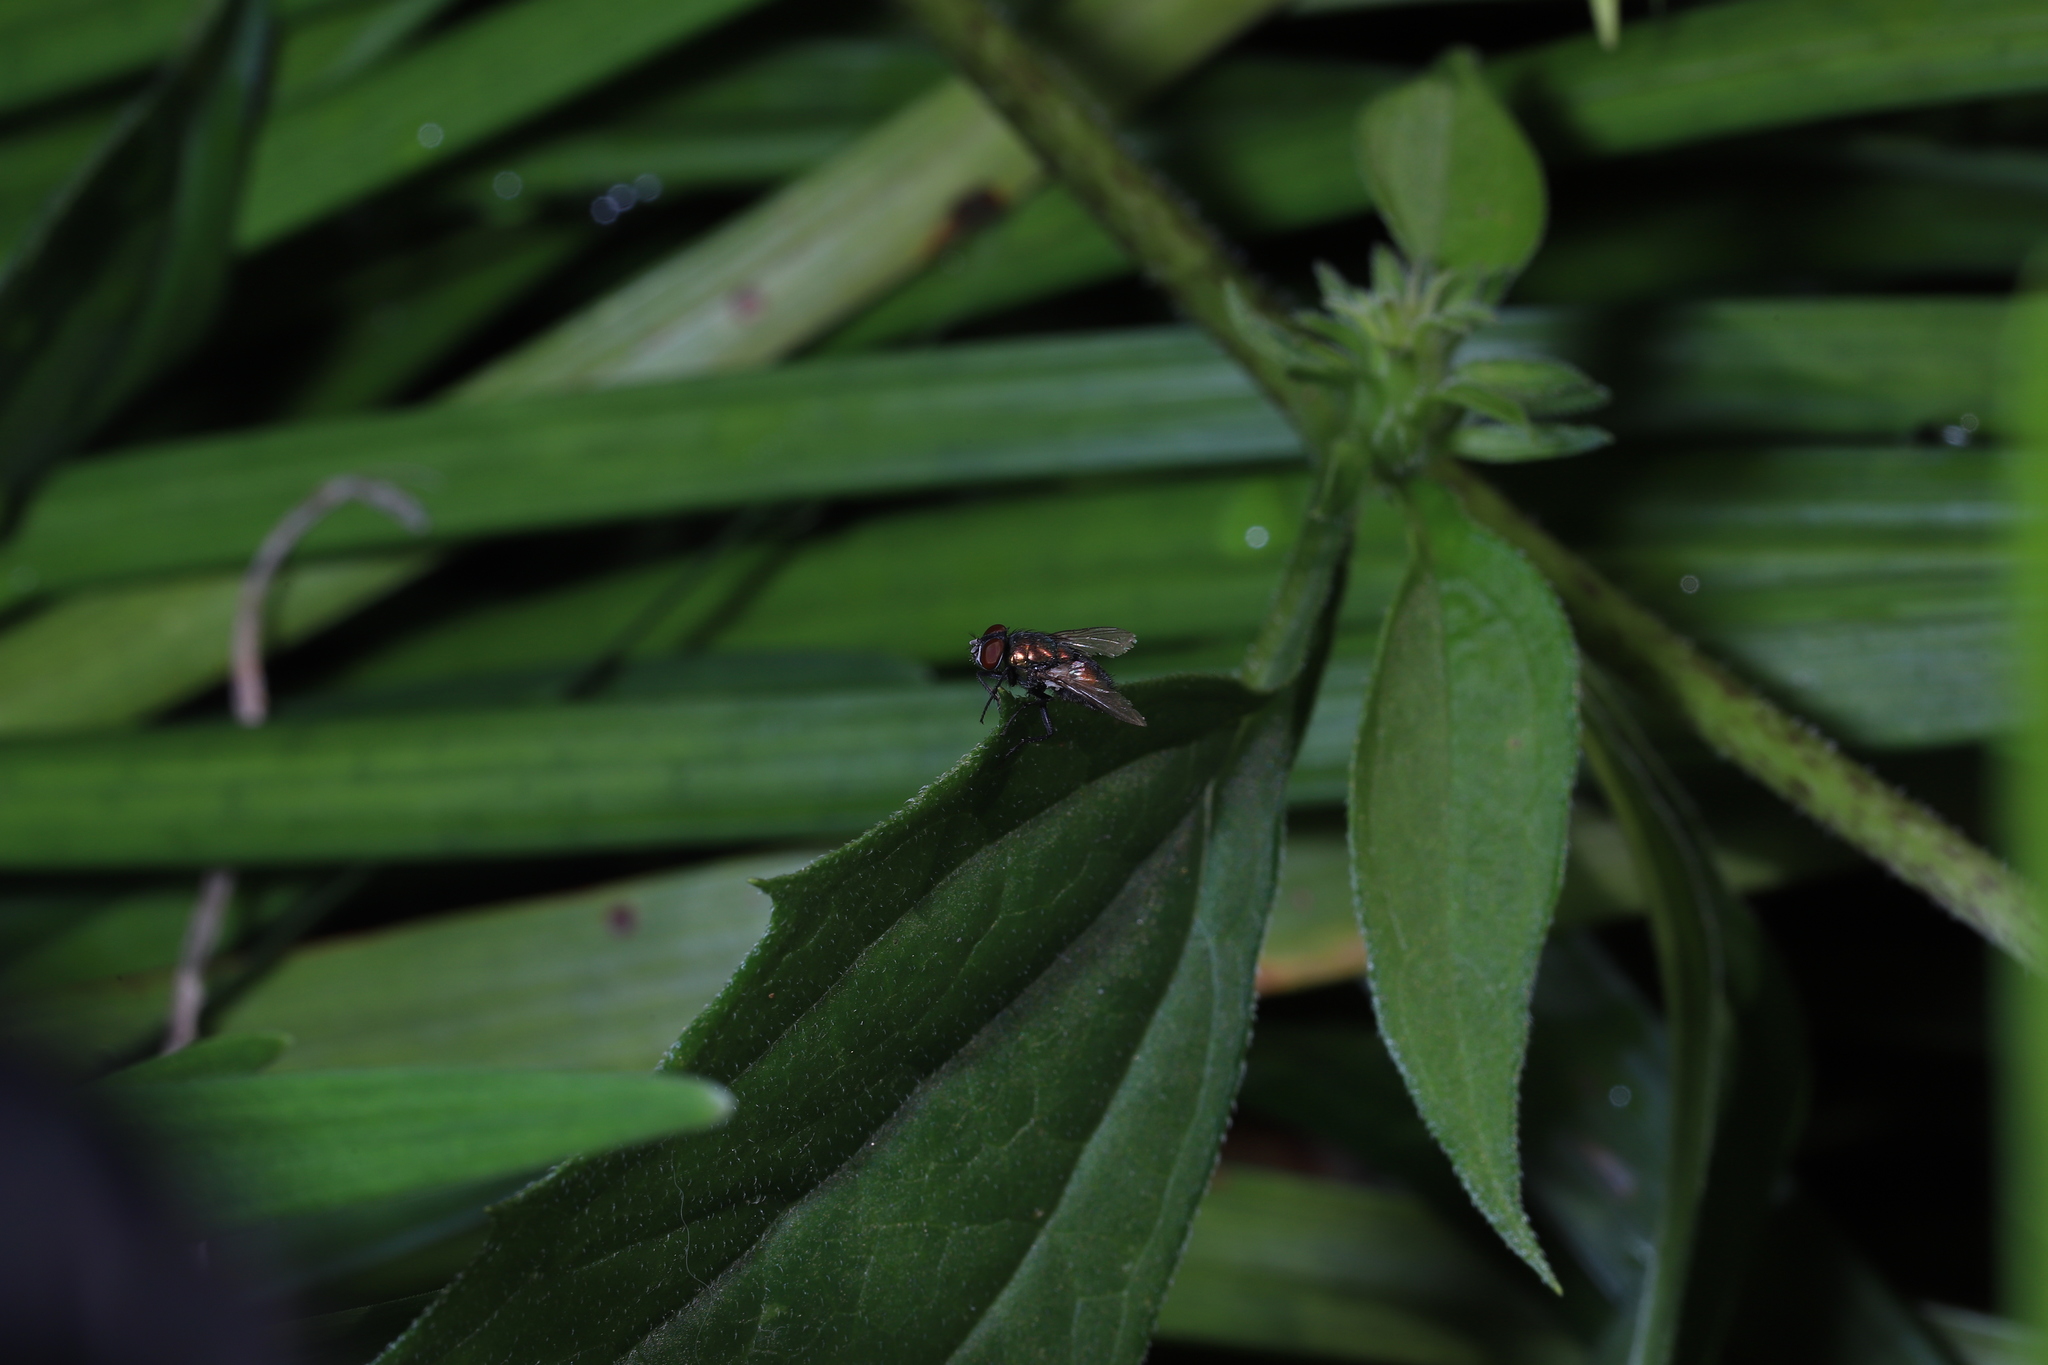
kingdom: Animalia
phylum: Arthropoda
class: Insecta
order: Diptera
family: Calliphoridae
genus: Lucilia
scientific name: Lucilia sericata
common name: Blow fly
